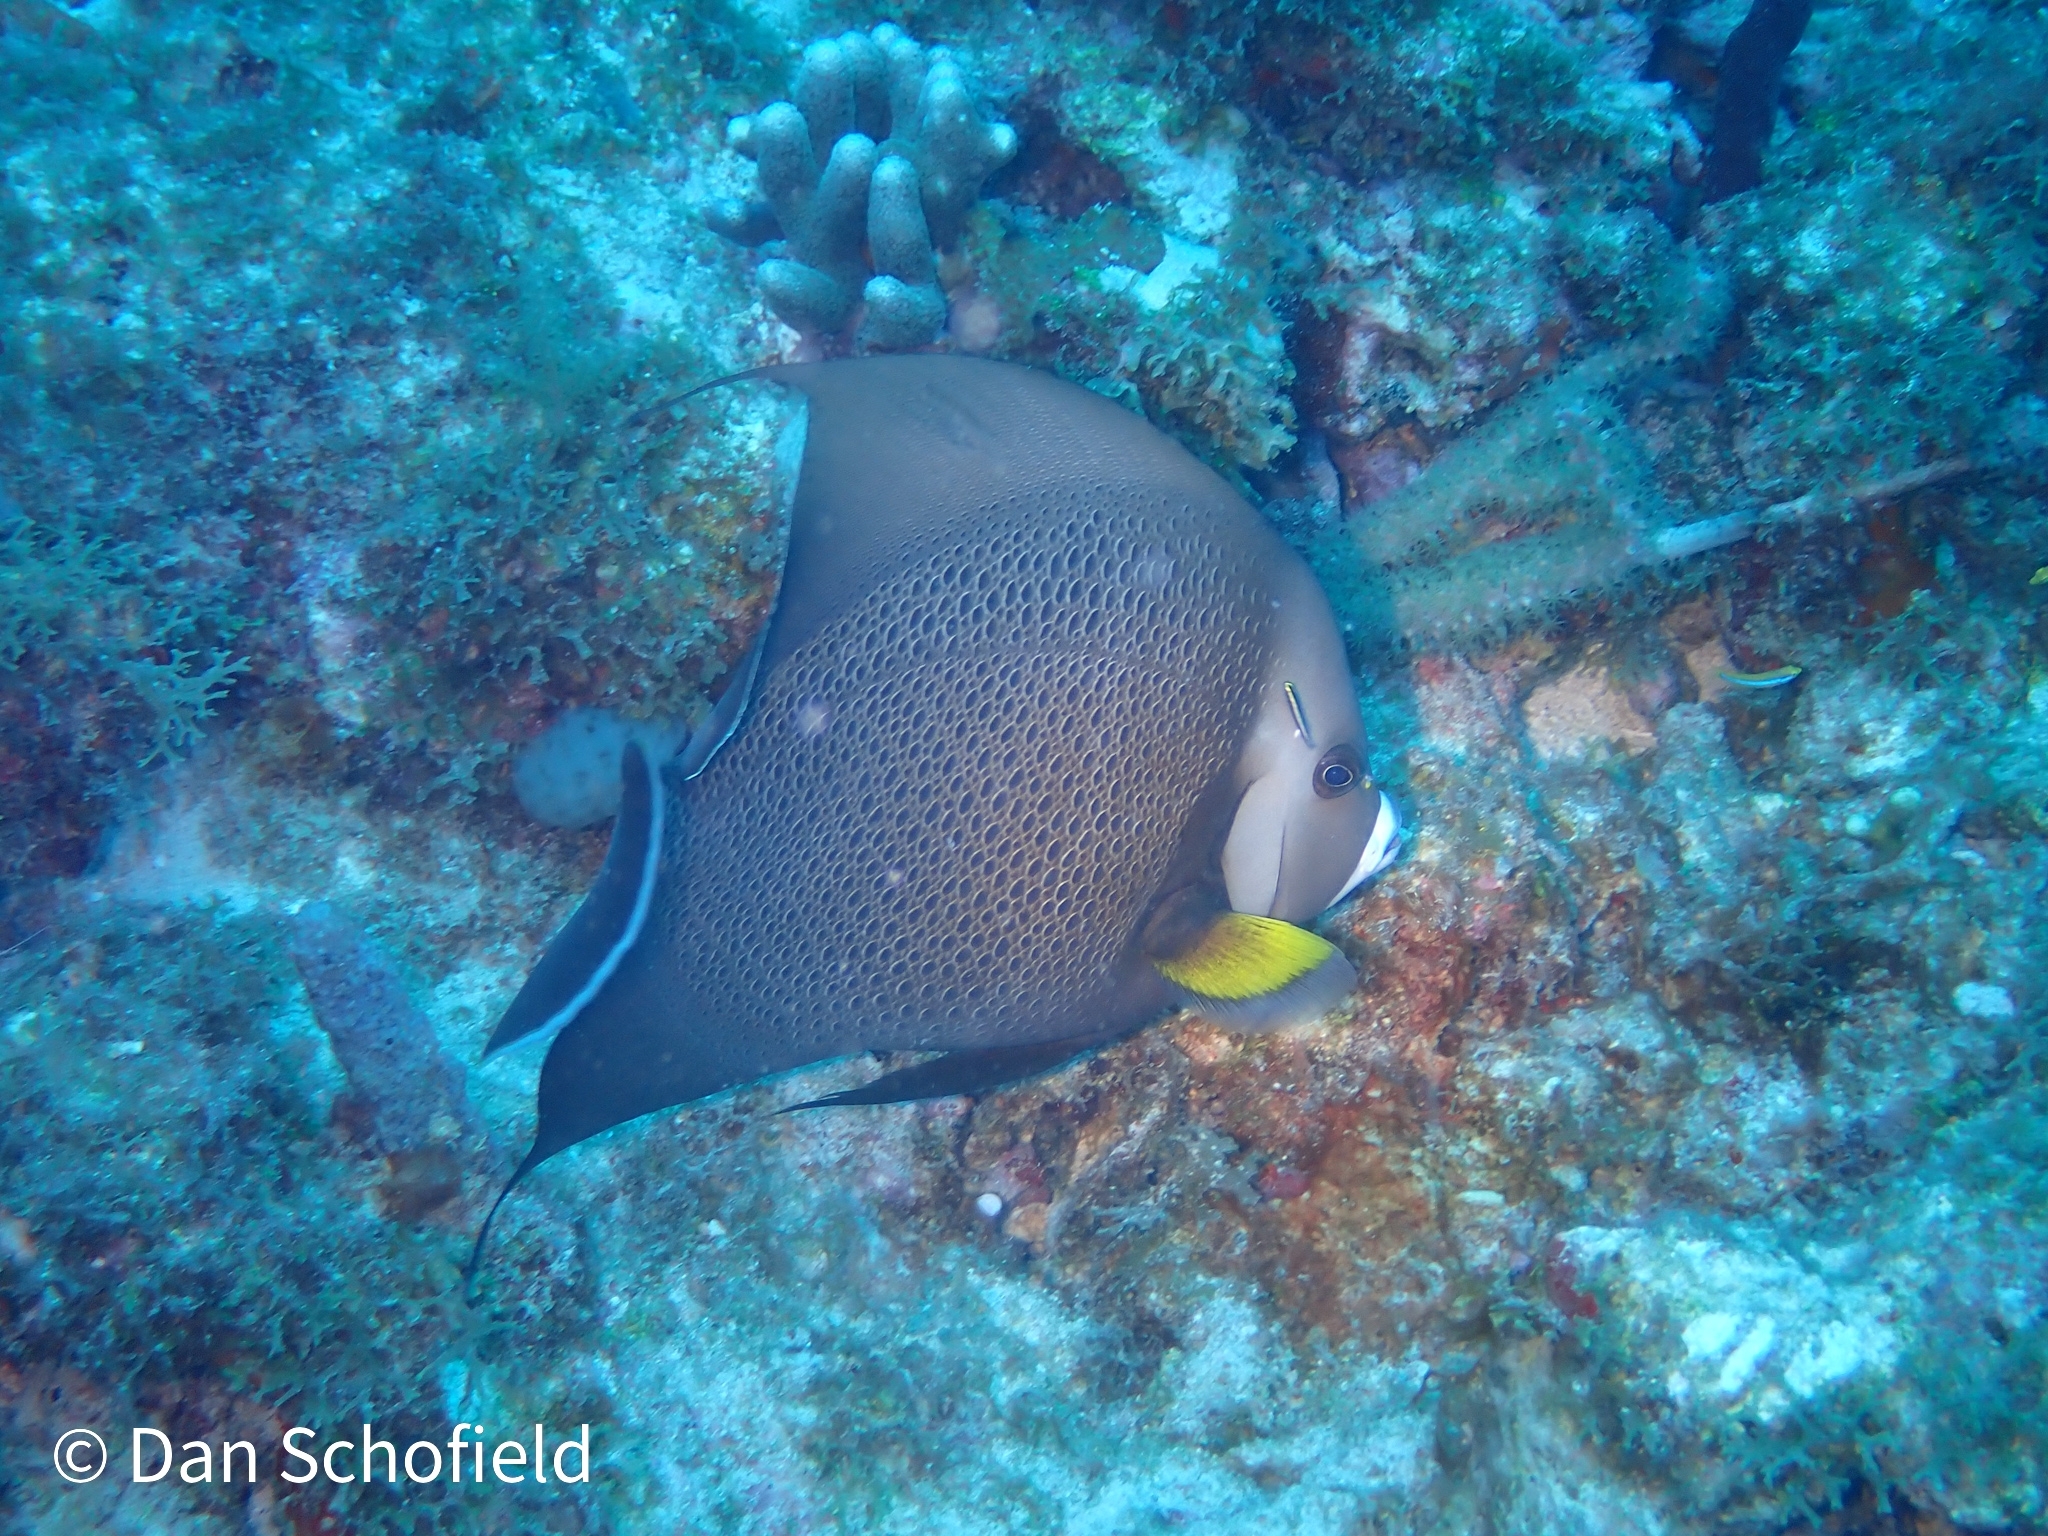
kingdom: Animalia
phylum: Chordata
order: Perciformes
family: Pomacanthidae
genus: Pomacanthus
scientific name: Pomacanthus arcuatus
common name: Gray angelfish
